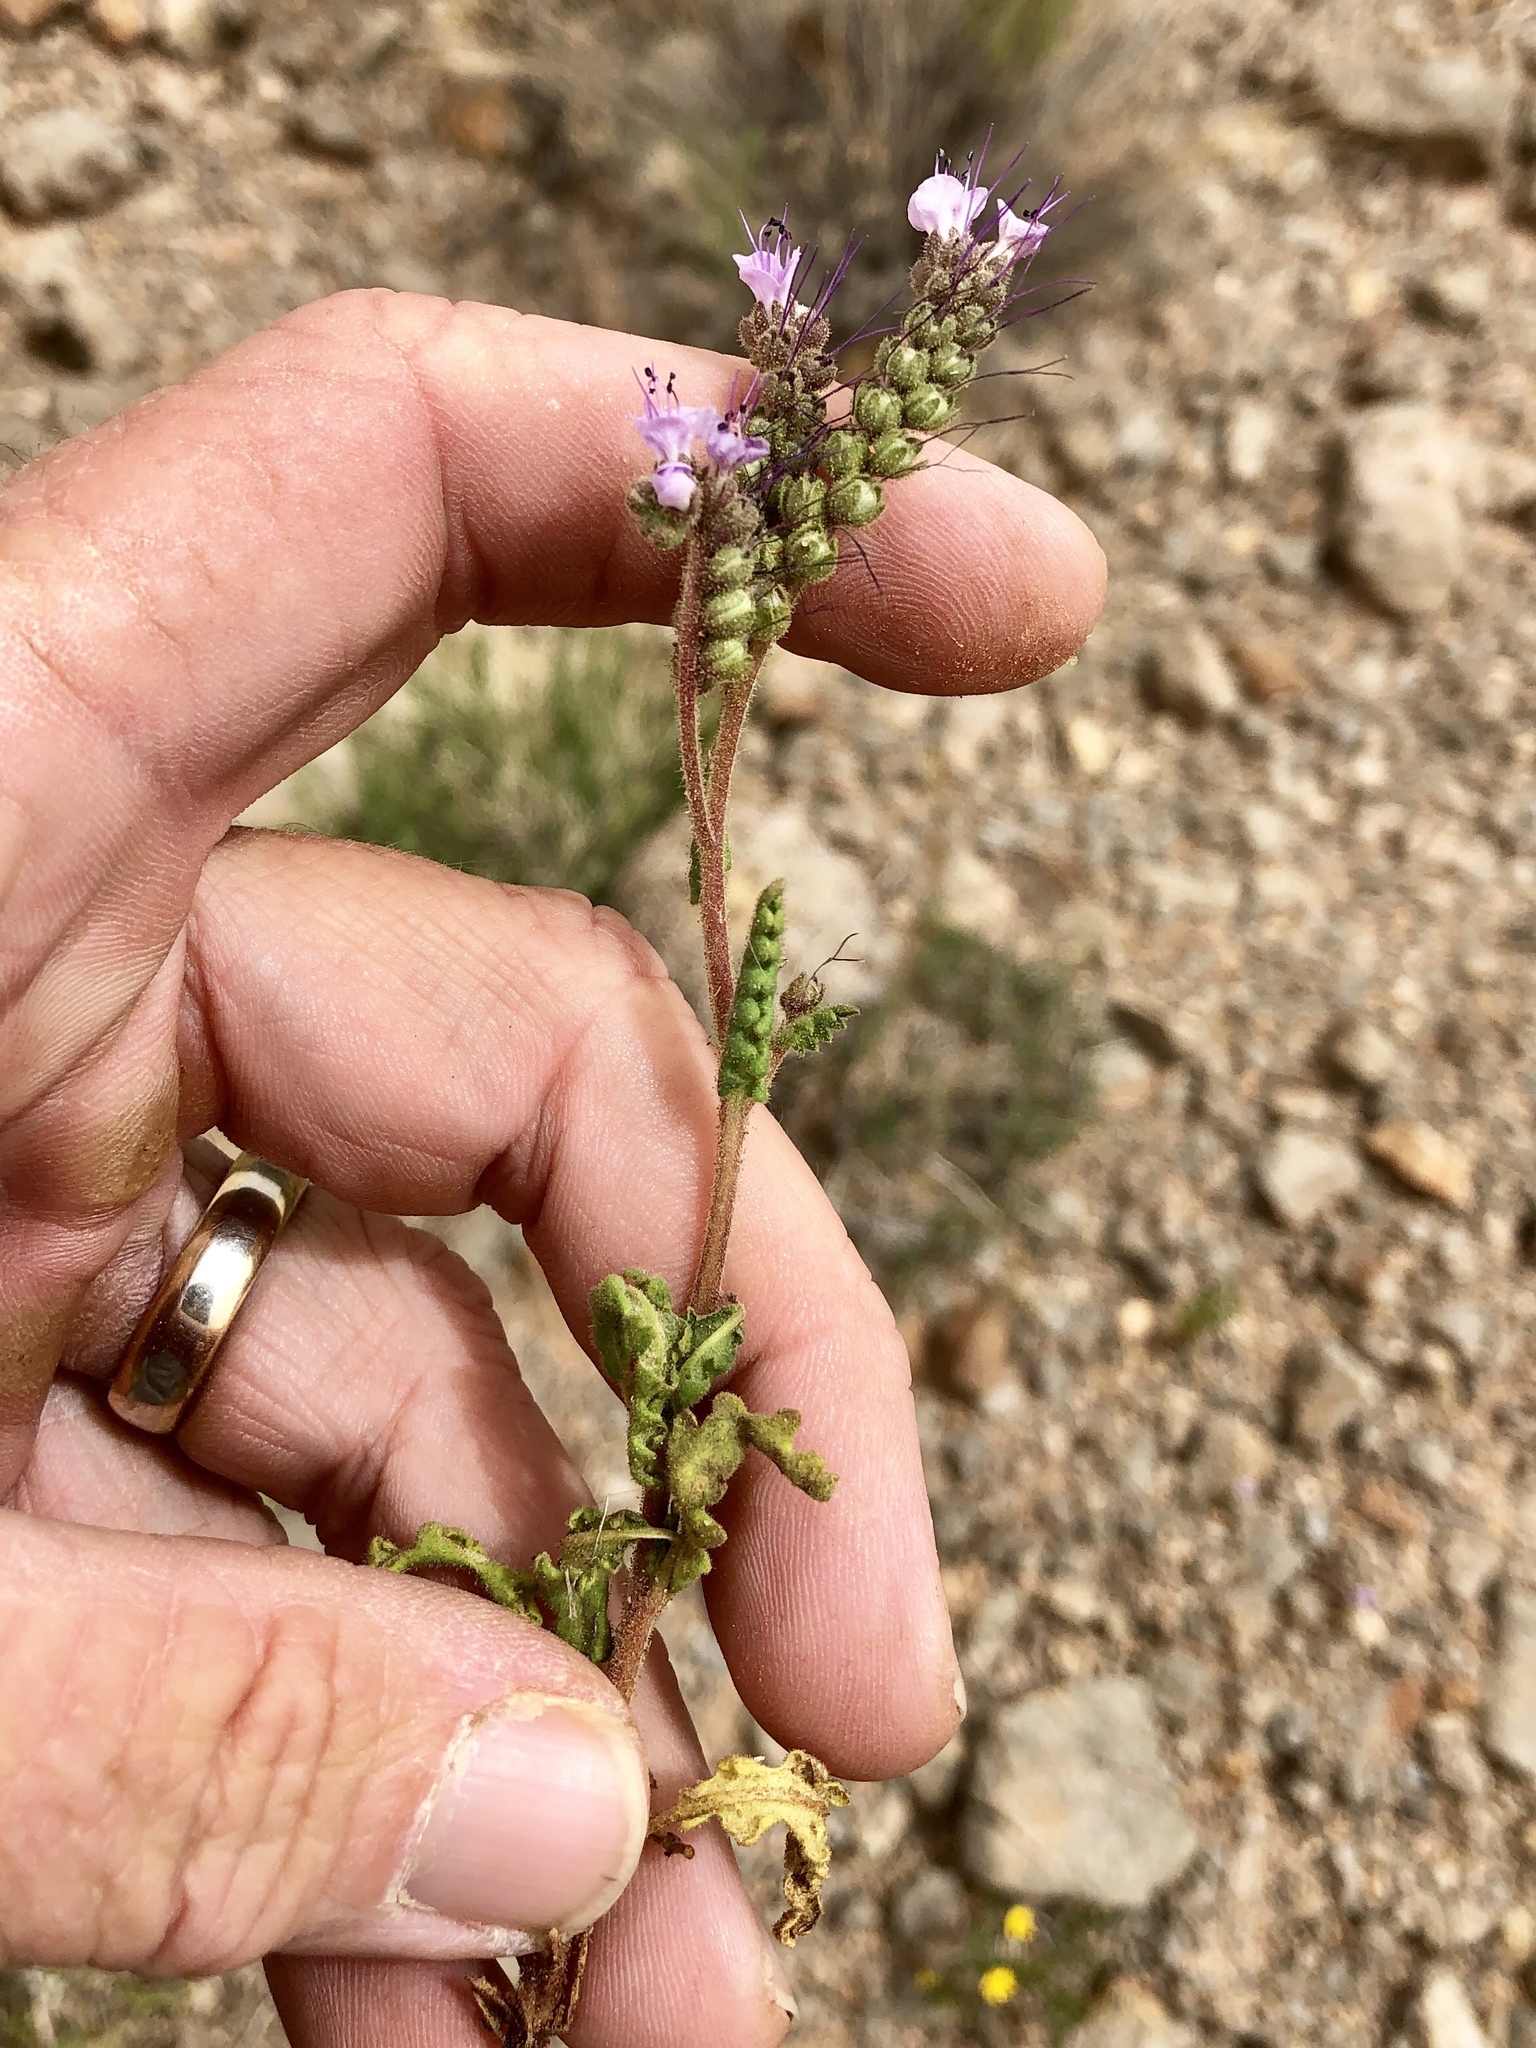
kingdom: Plantae
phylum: Tracheophyta
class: Magnoliopsida
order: Boraginales
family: Hydrophyllaceae
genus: Phacelia
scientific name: Phacelia integrifolia
